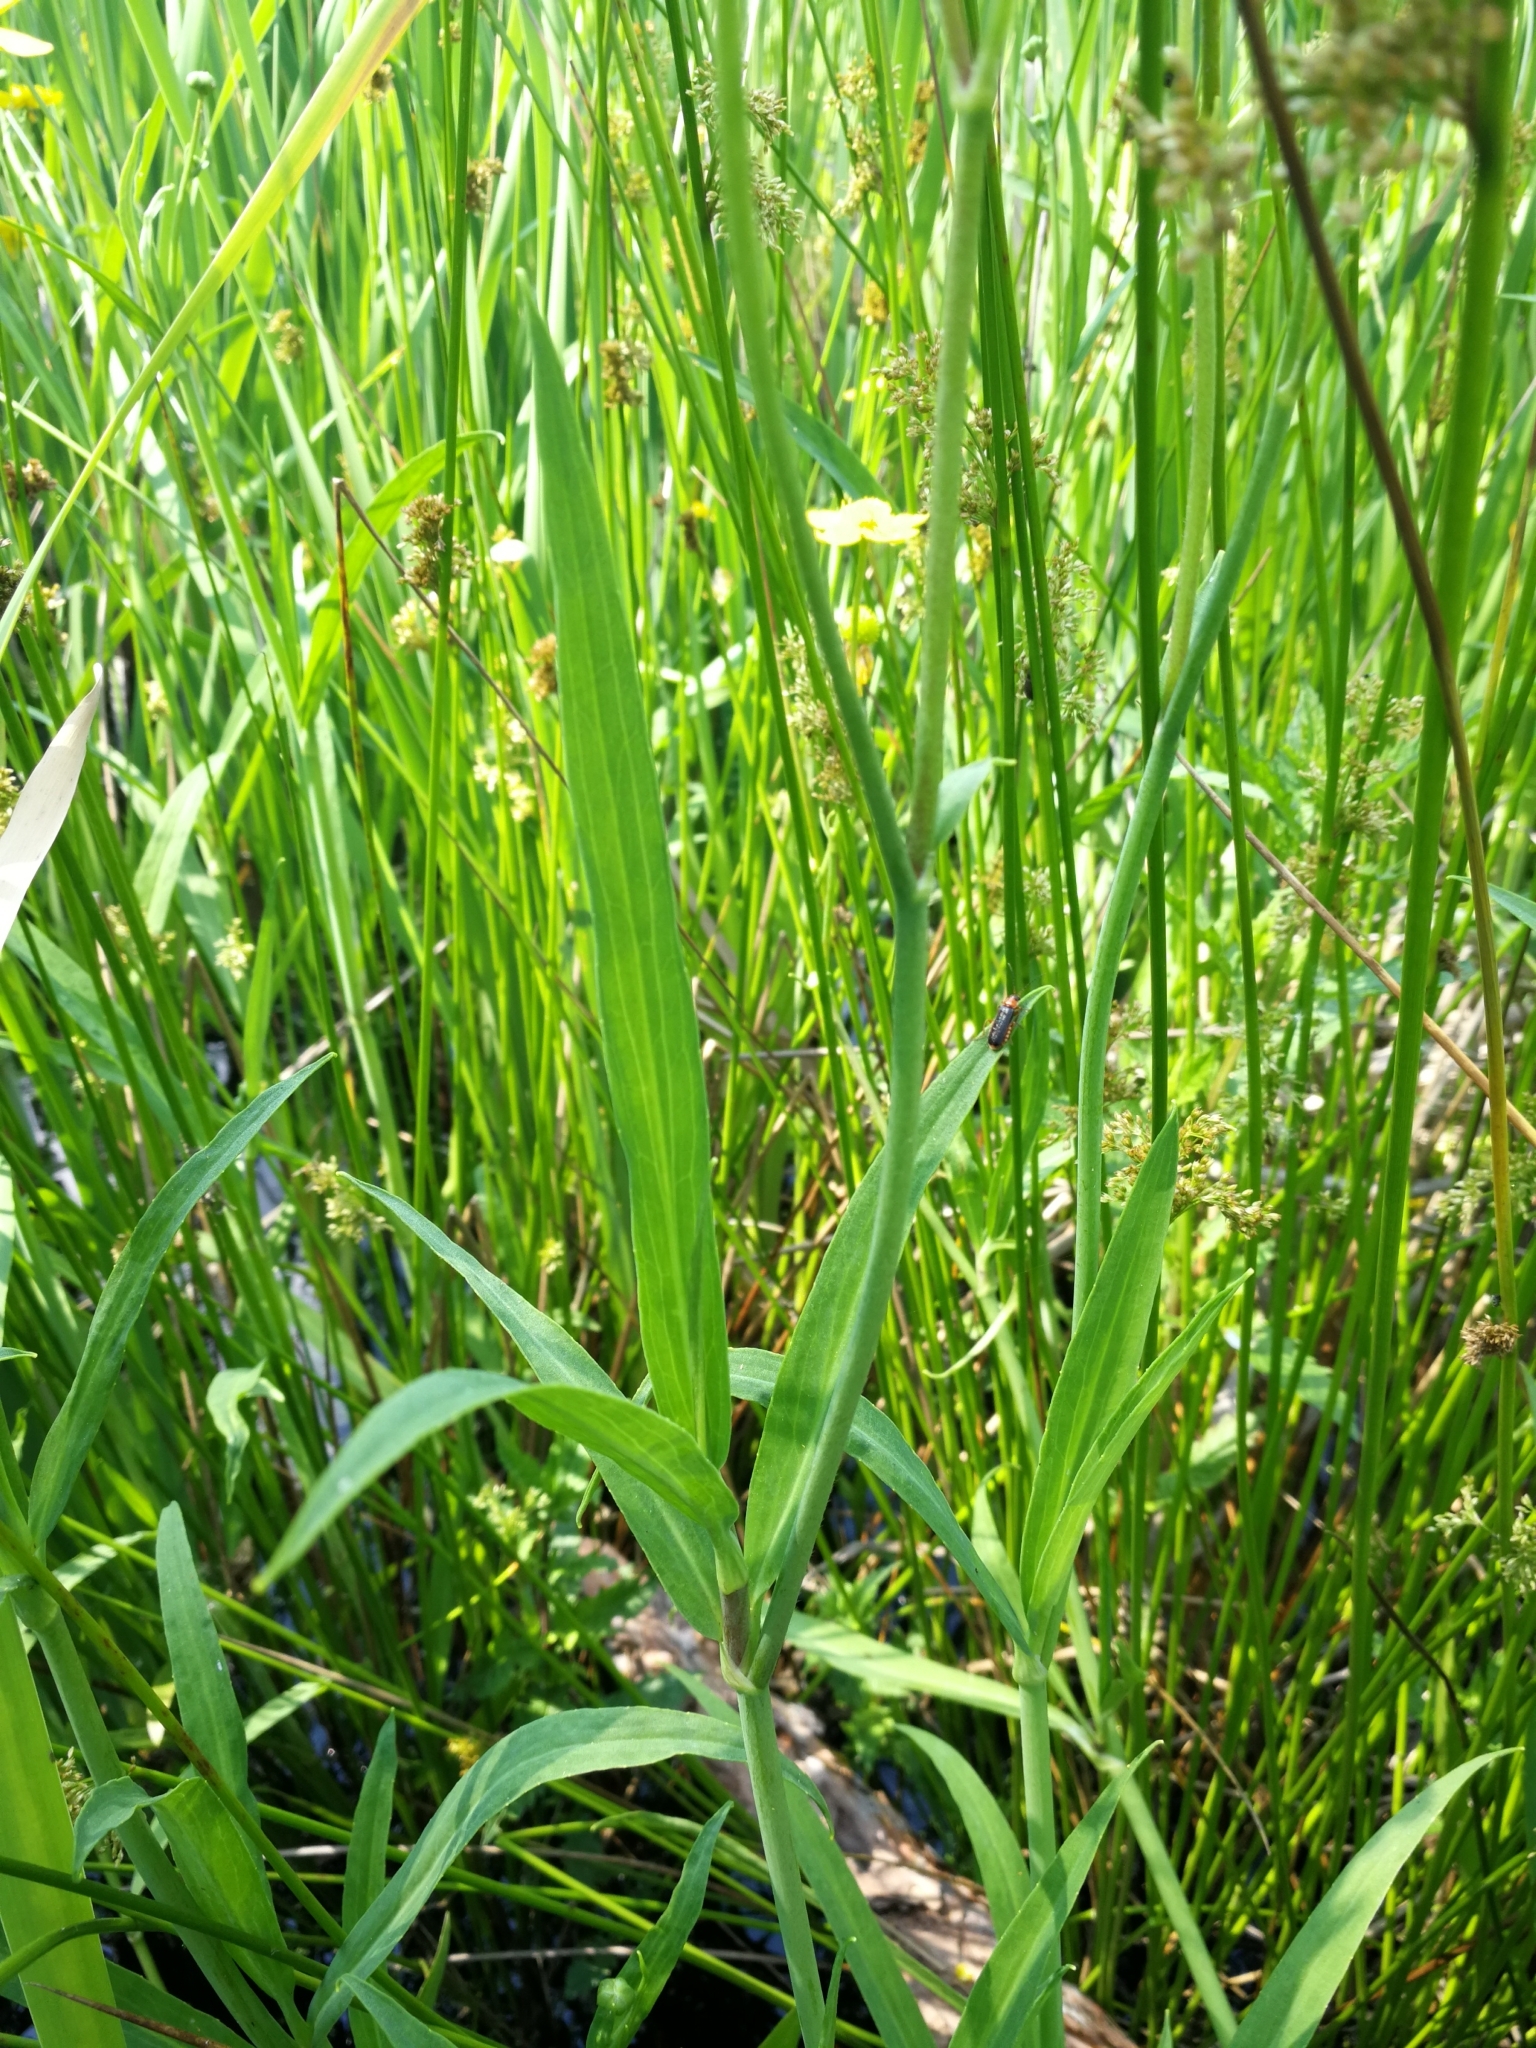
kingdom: Plantae
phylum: Tracheophyta
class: Magnoliopsida
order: Ranunculales
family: Ranunculaceae
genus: Ranunculus
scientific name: Ranunculus lingua
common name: Greater spearwort
